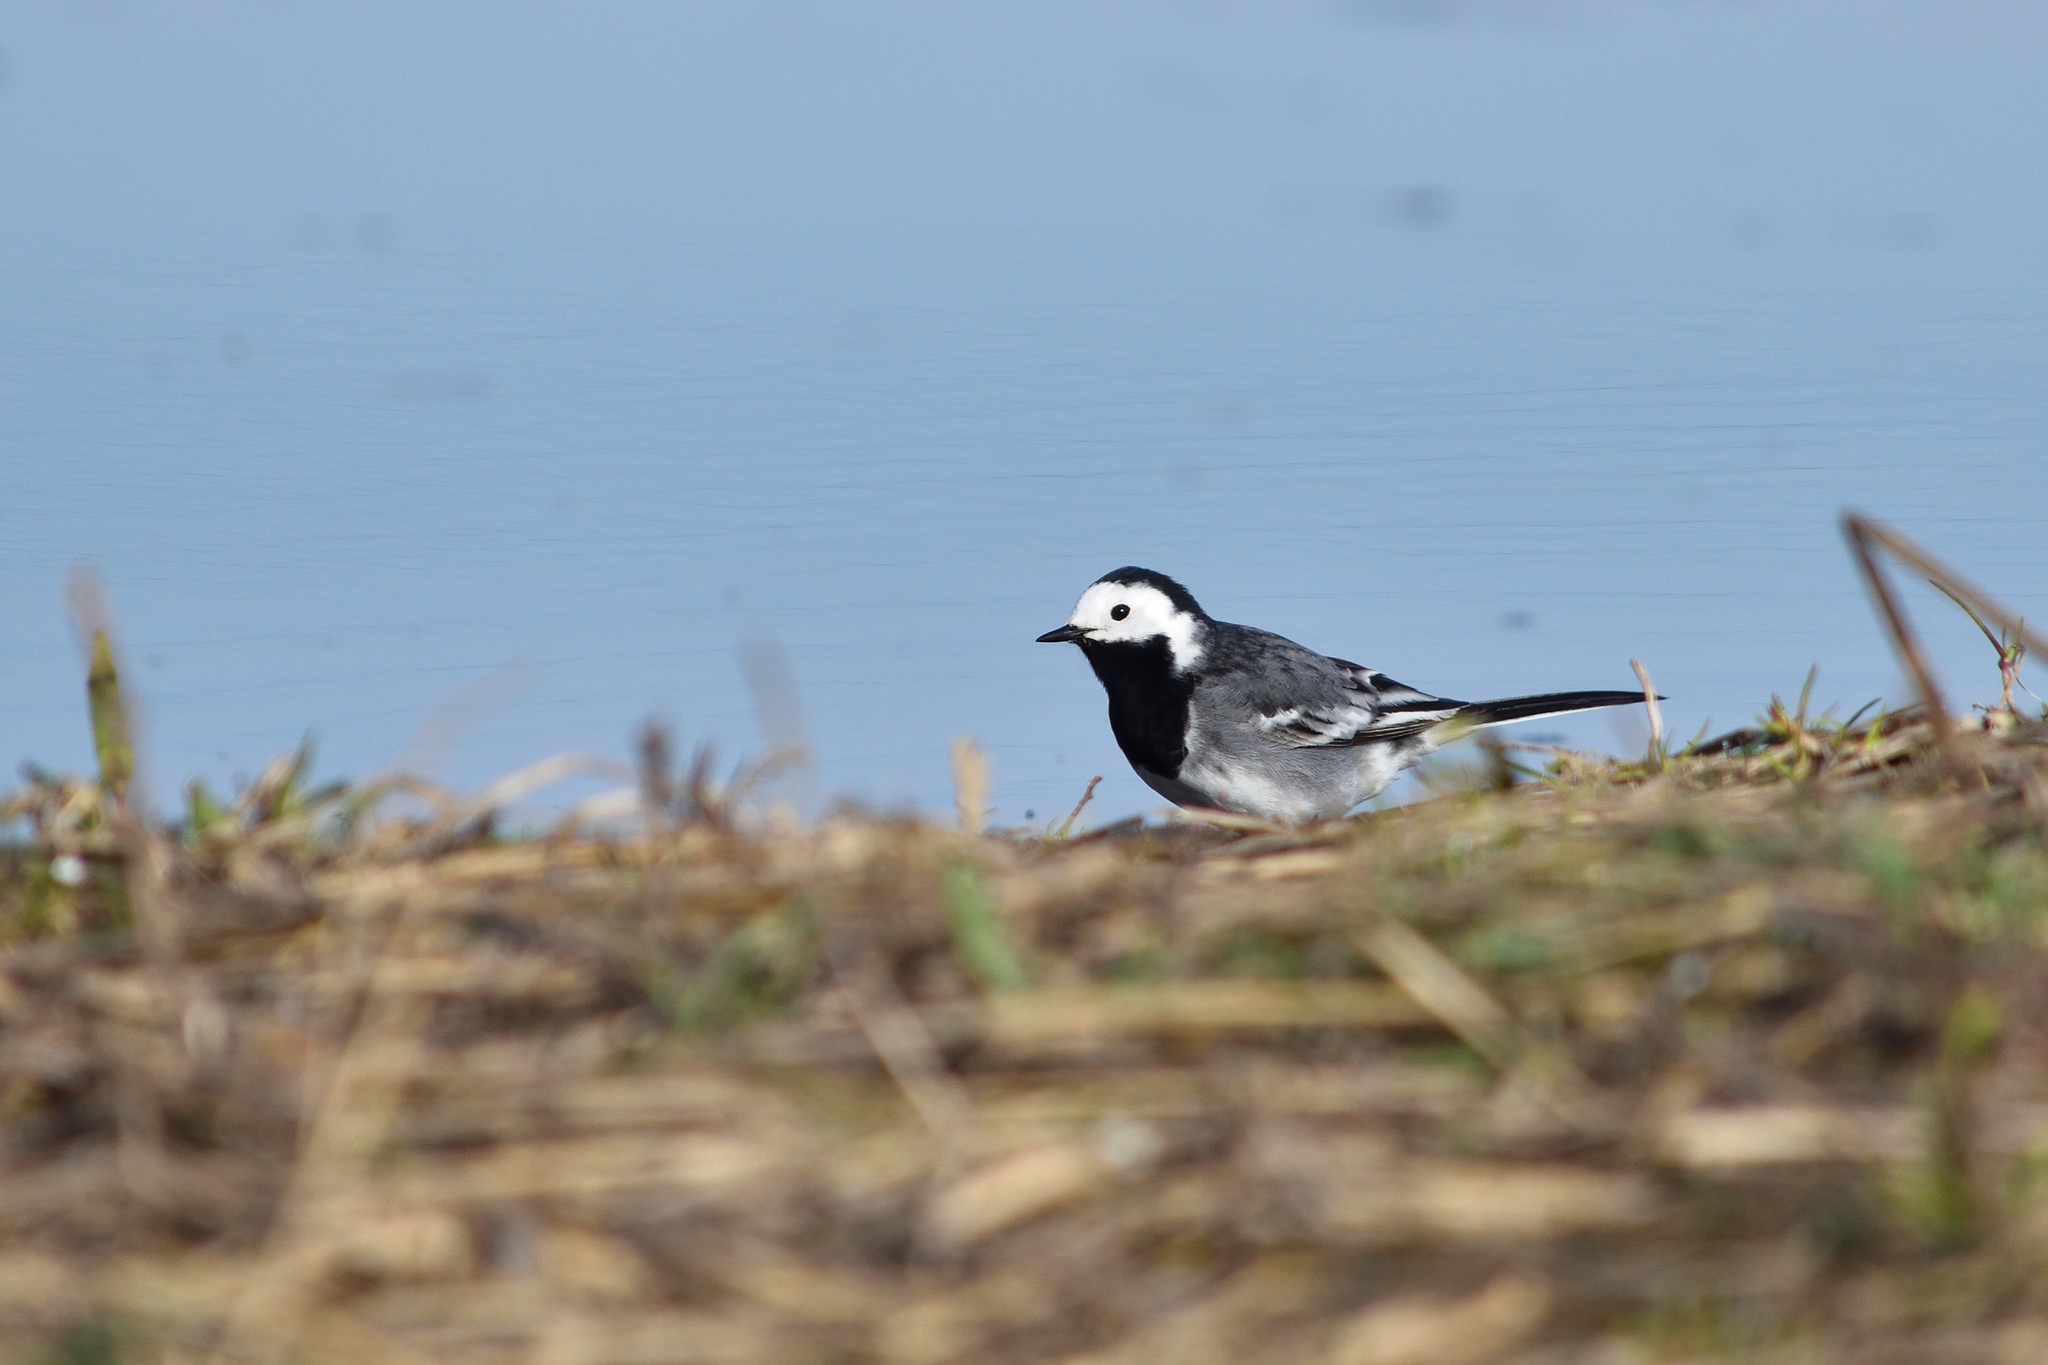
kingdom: Animalia
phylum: Chordata
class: Aves
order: Passeriformes
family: Motacillidae
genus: Motacilla
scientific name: Motacilla alba
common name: White wagtail
